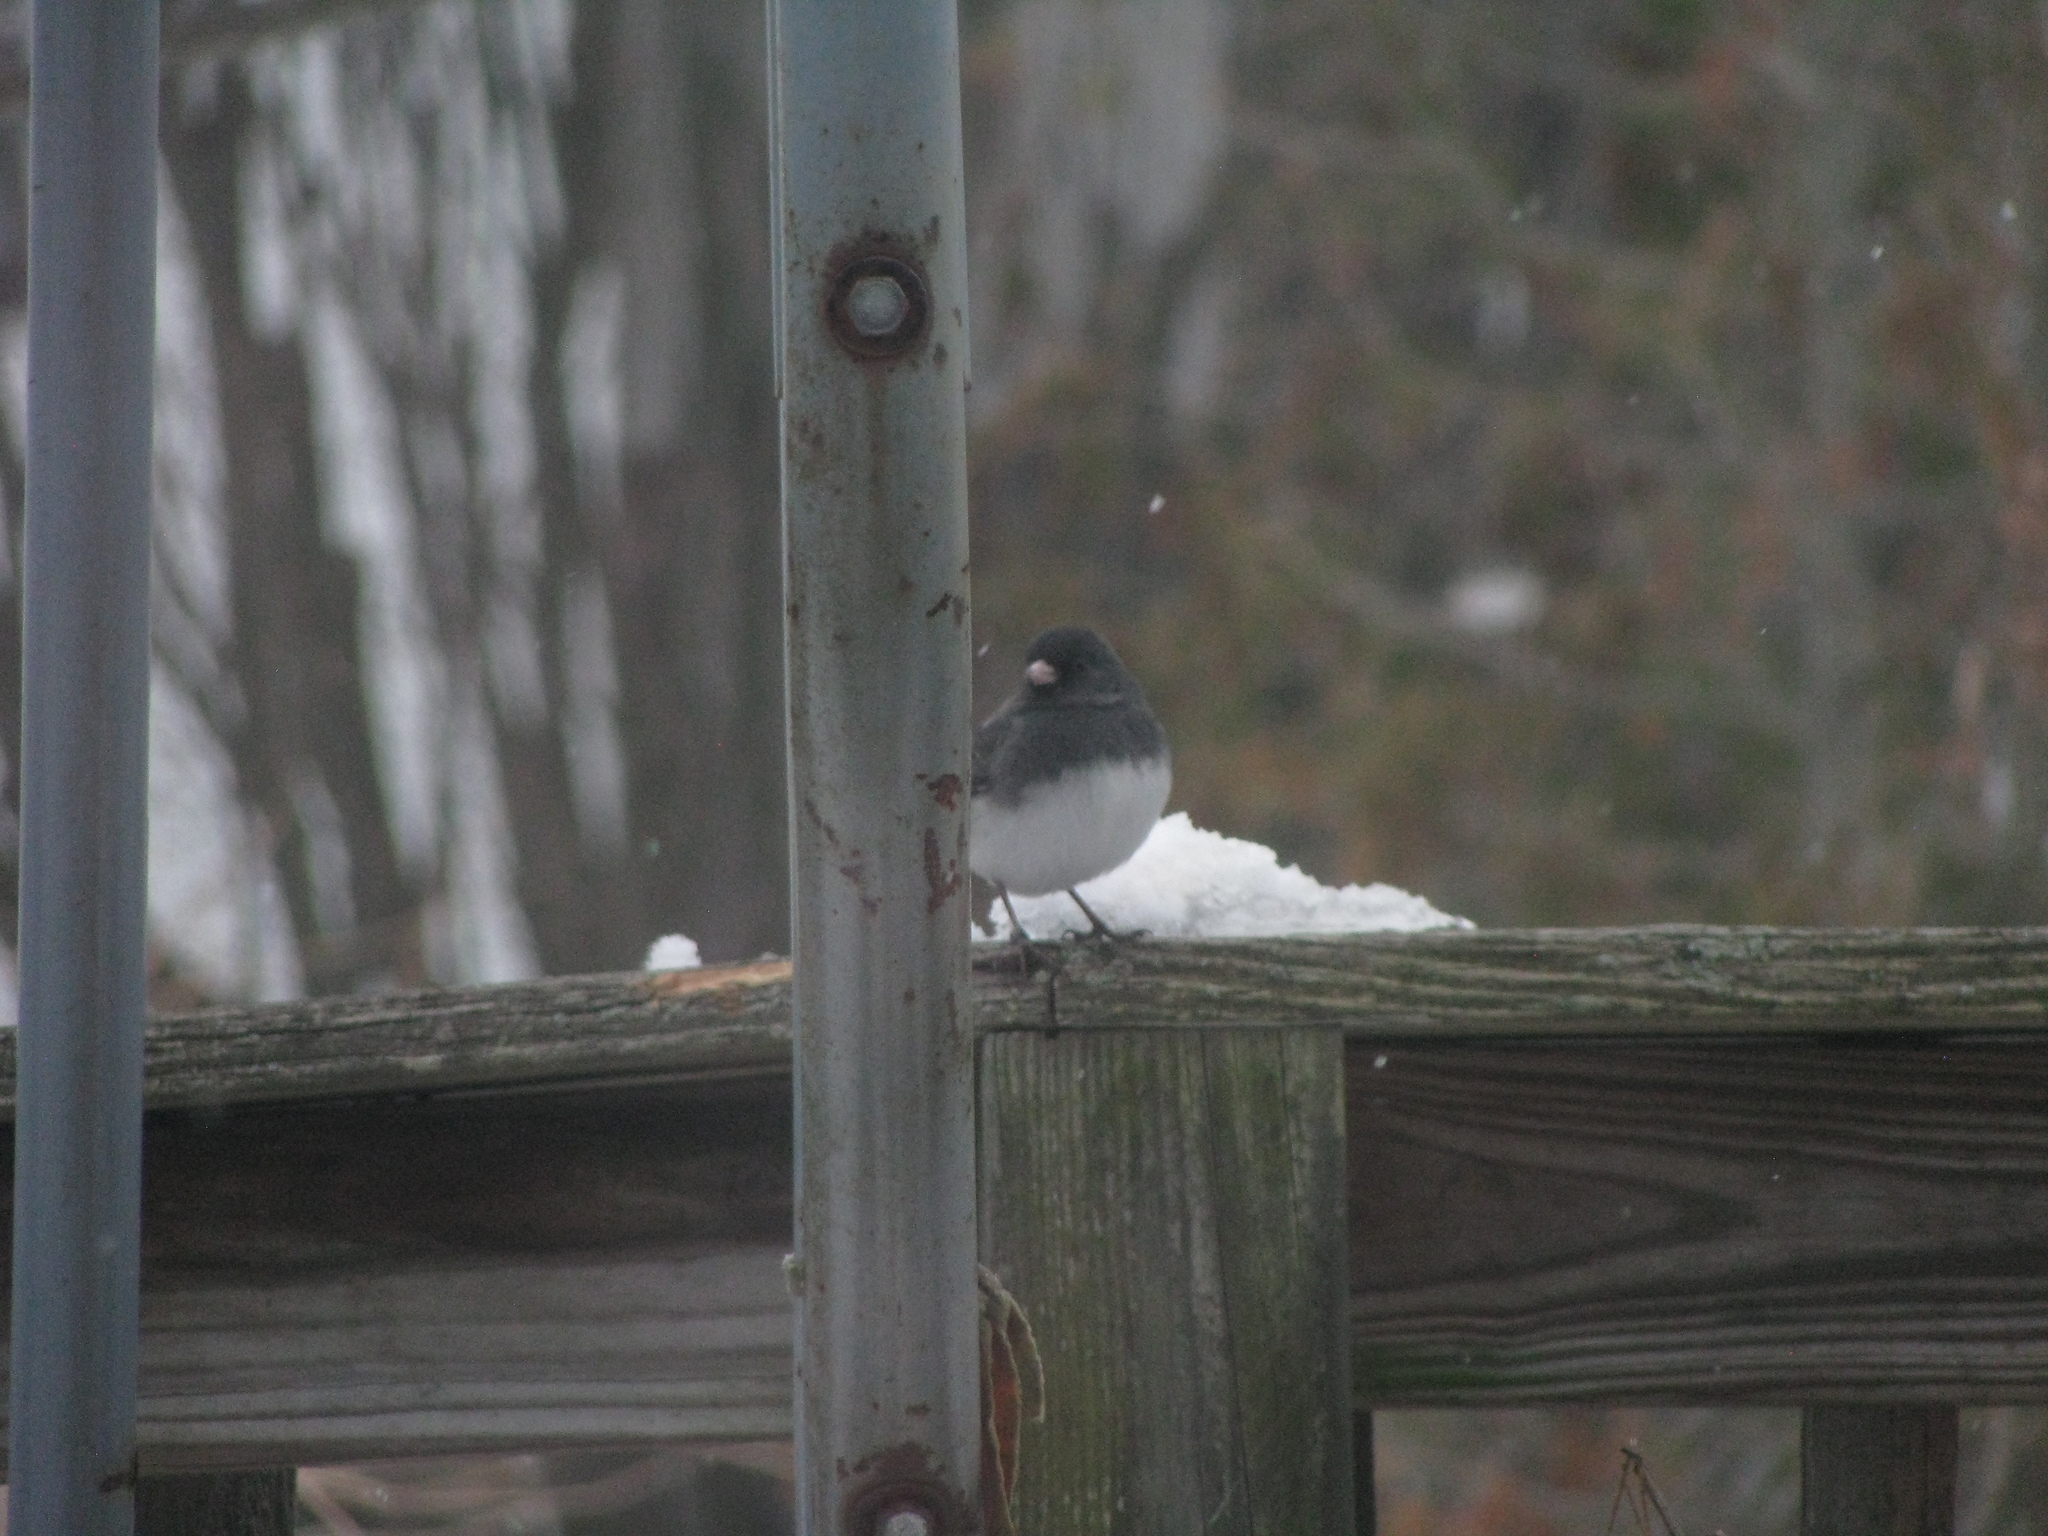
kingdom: Animalia
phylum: Chordata
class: Aves
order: Passeriformes
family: Passerellidae
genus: Junco
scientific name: Junco hyemalis
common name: Dark-eyed junco
